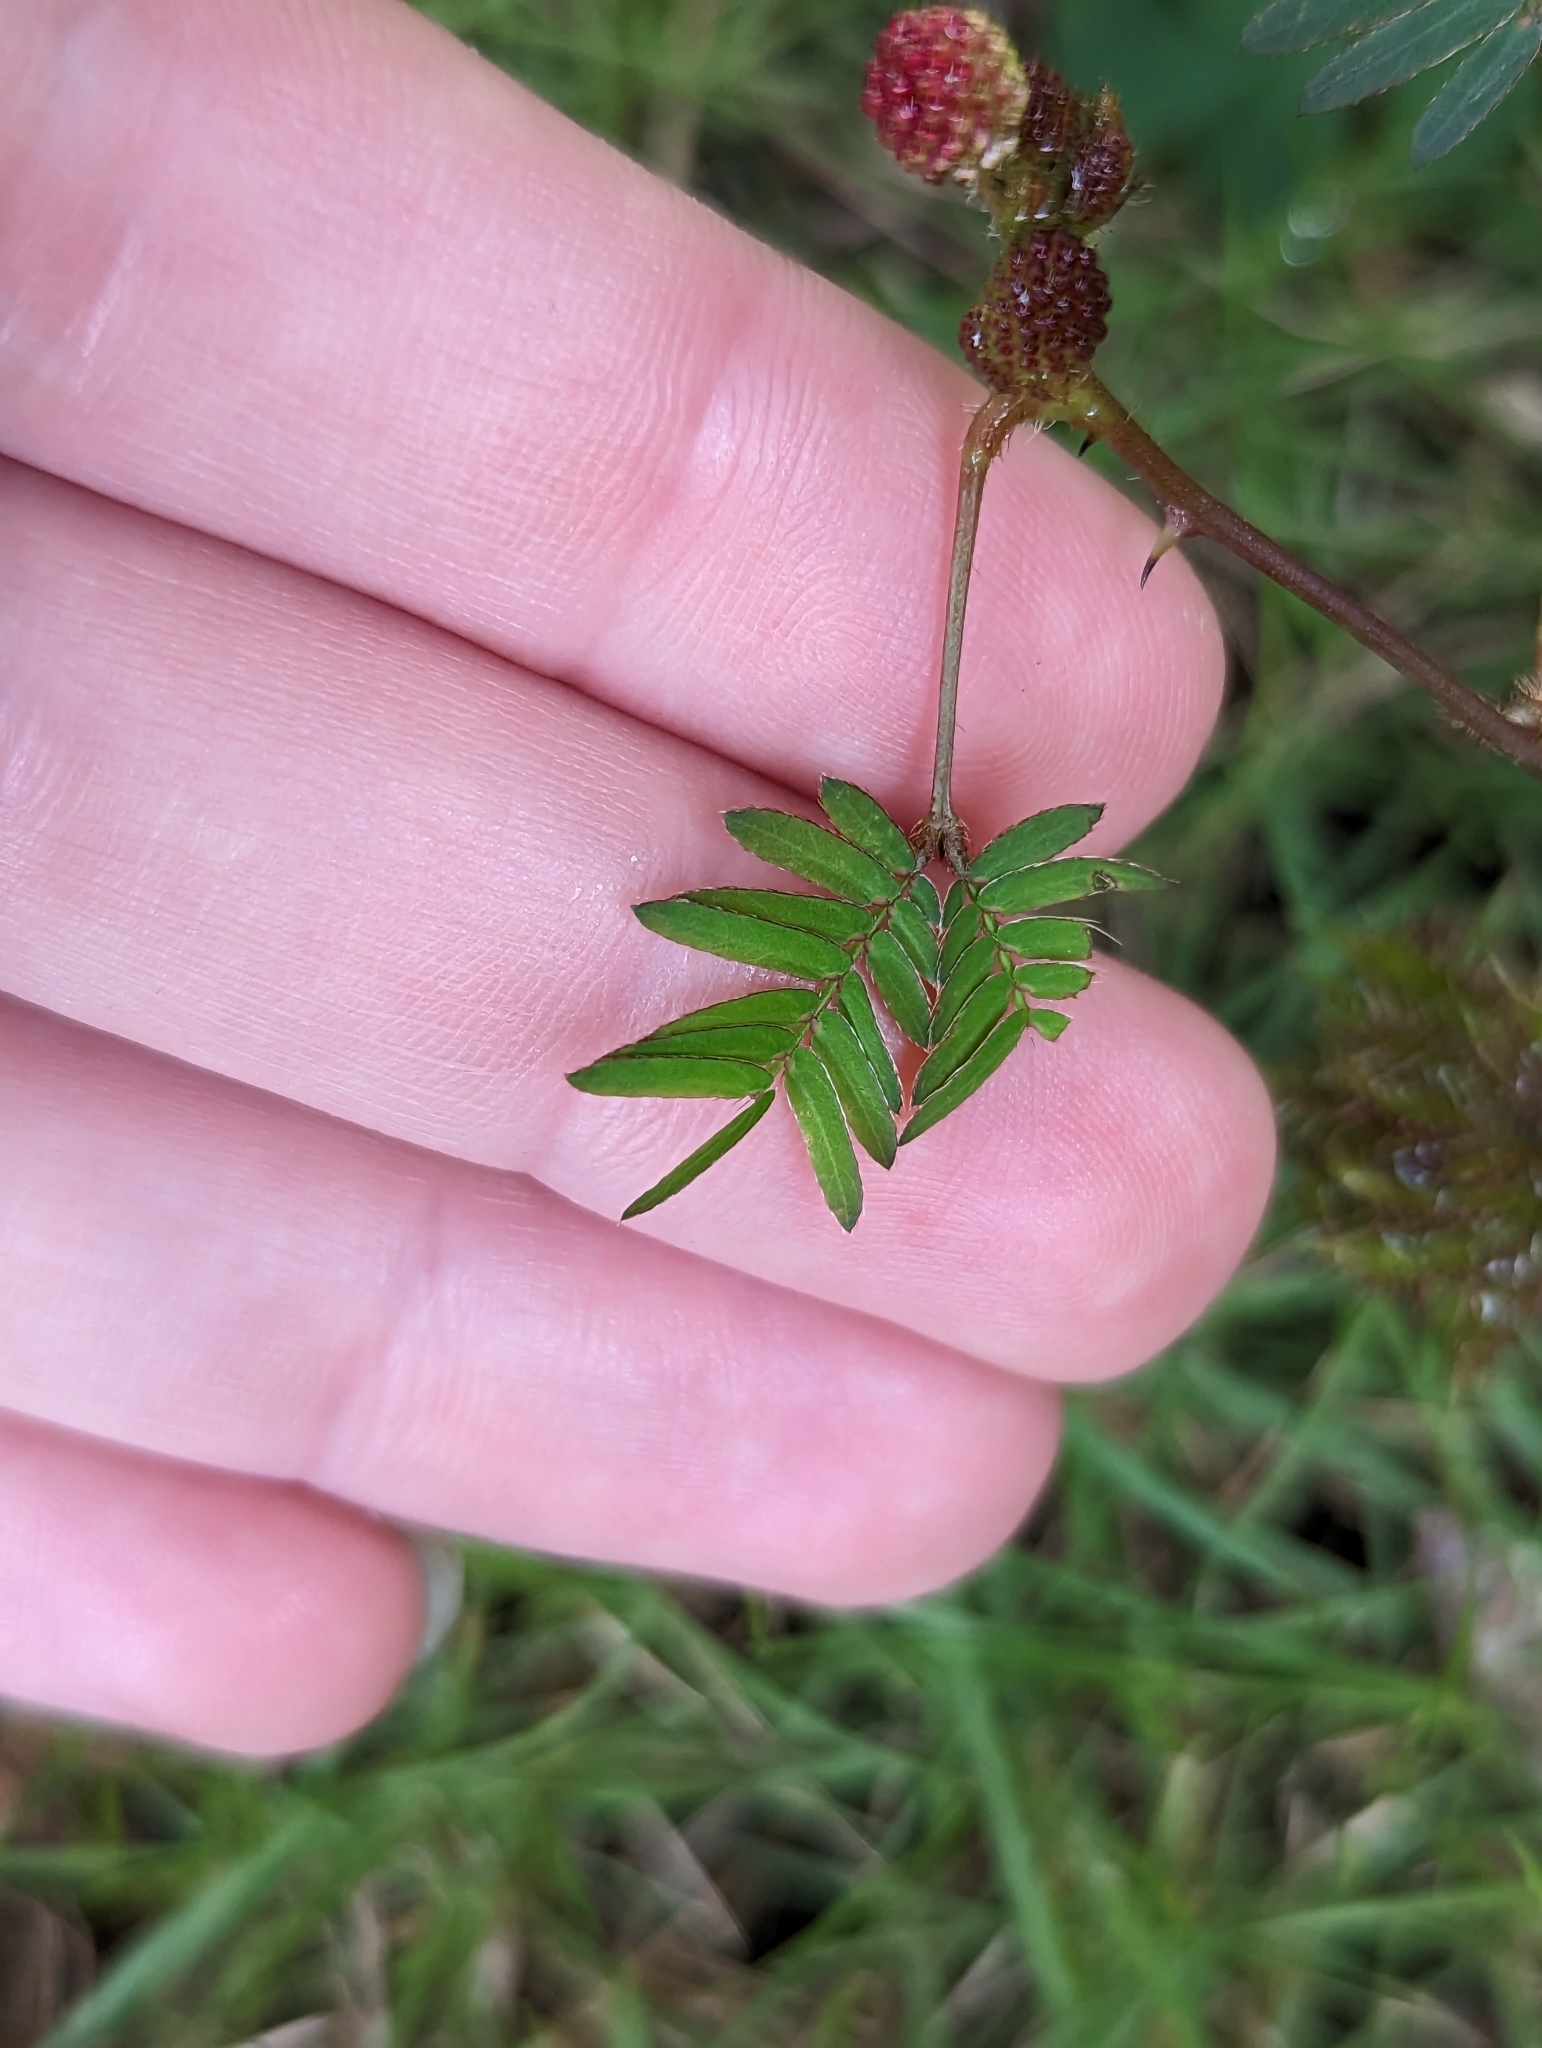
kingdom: Plantae
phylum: Tracheophyta
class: Magnoliopsida
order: Fabales
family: Fabaceae
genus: Mimosa
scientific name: Mimosa pudica
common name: Sensitive plant
